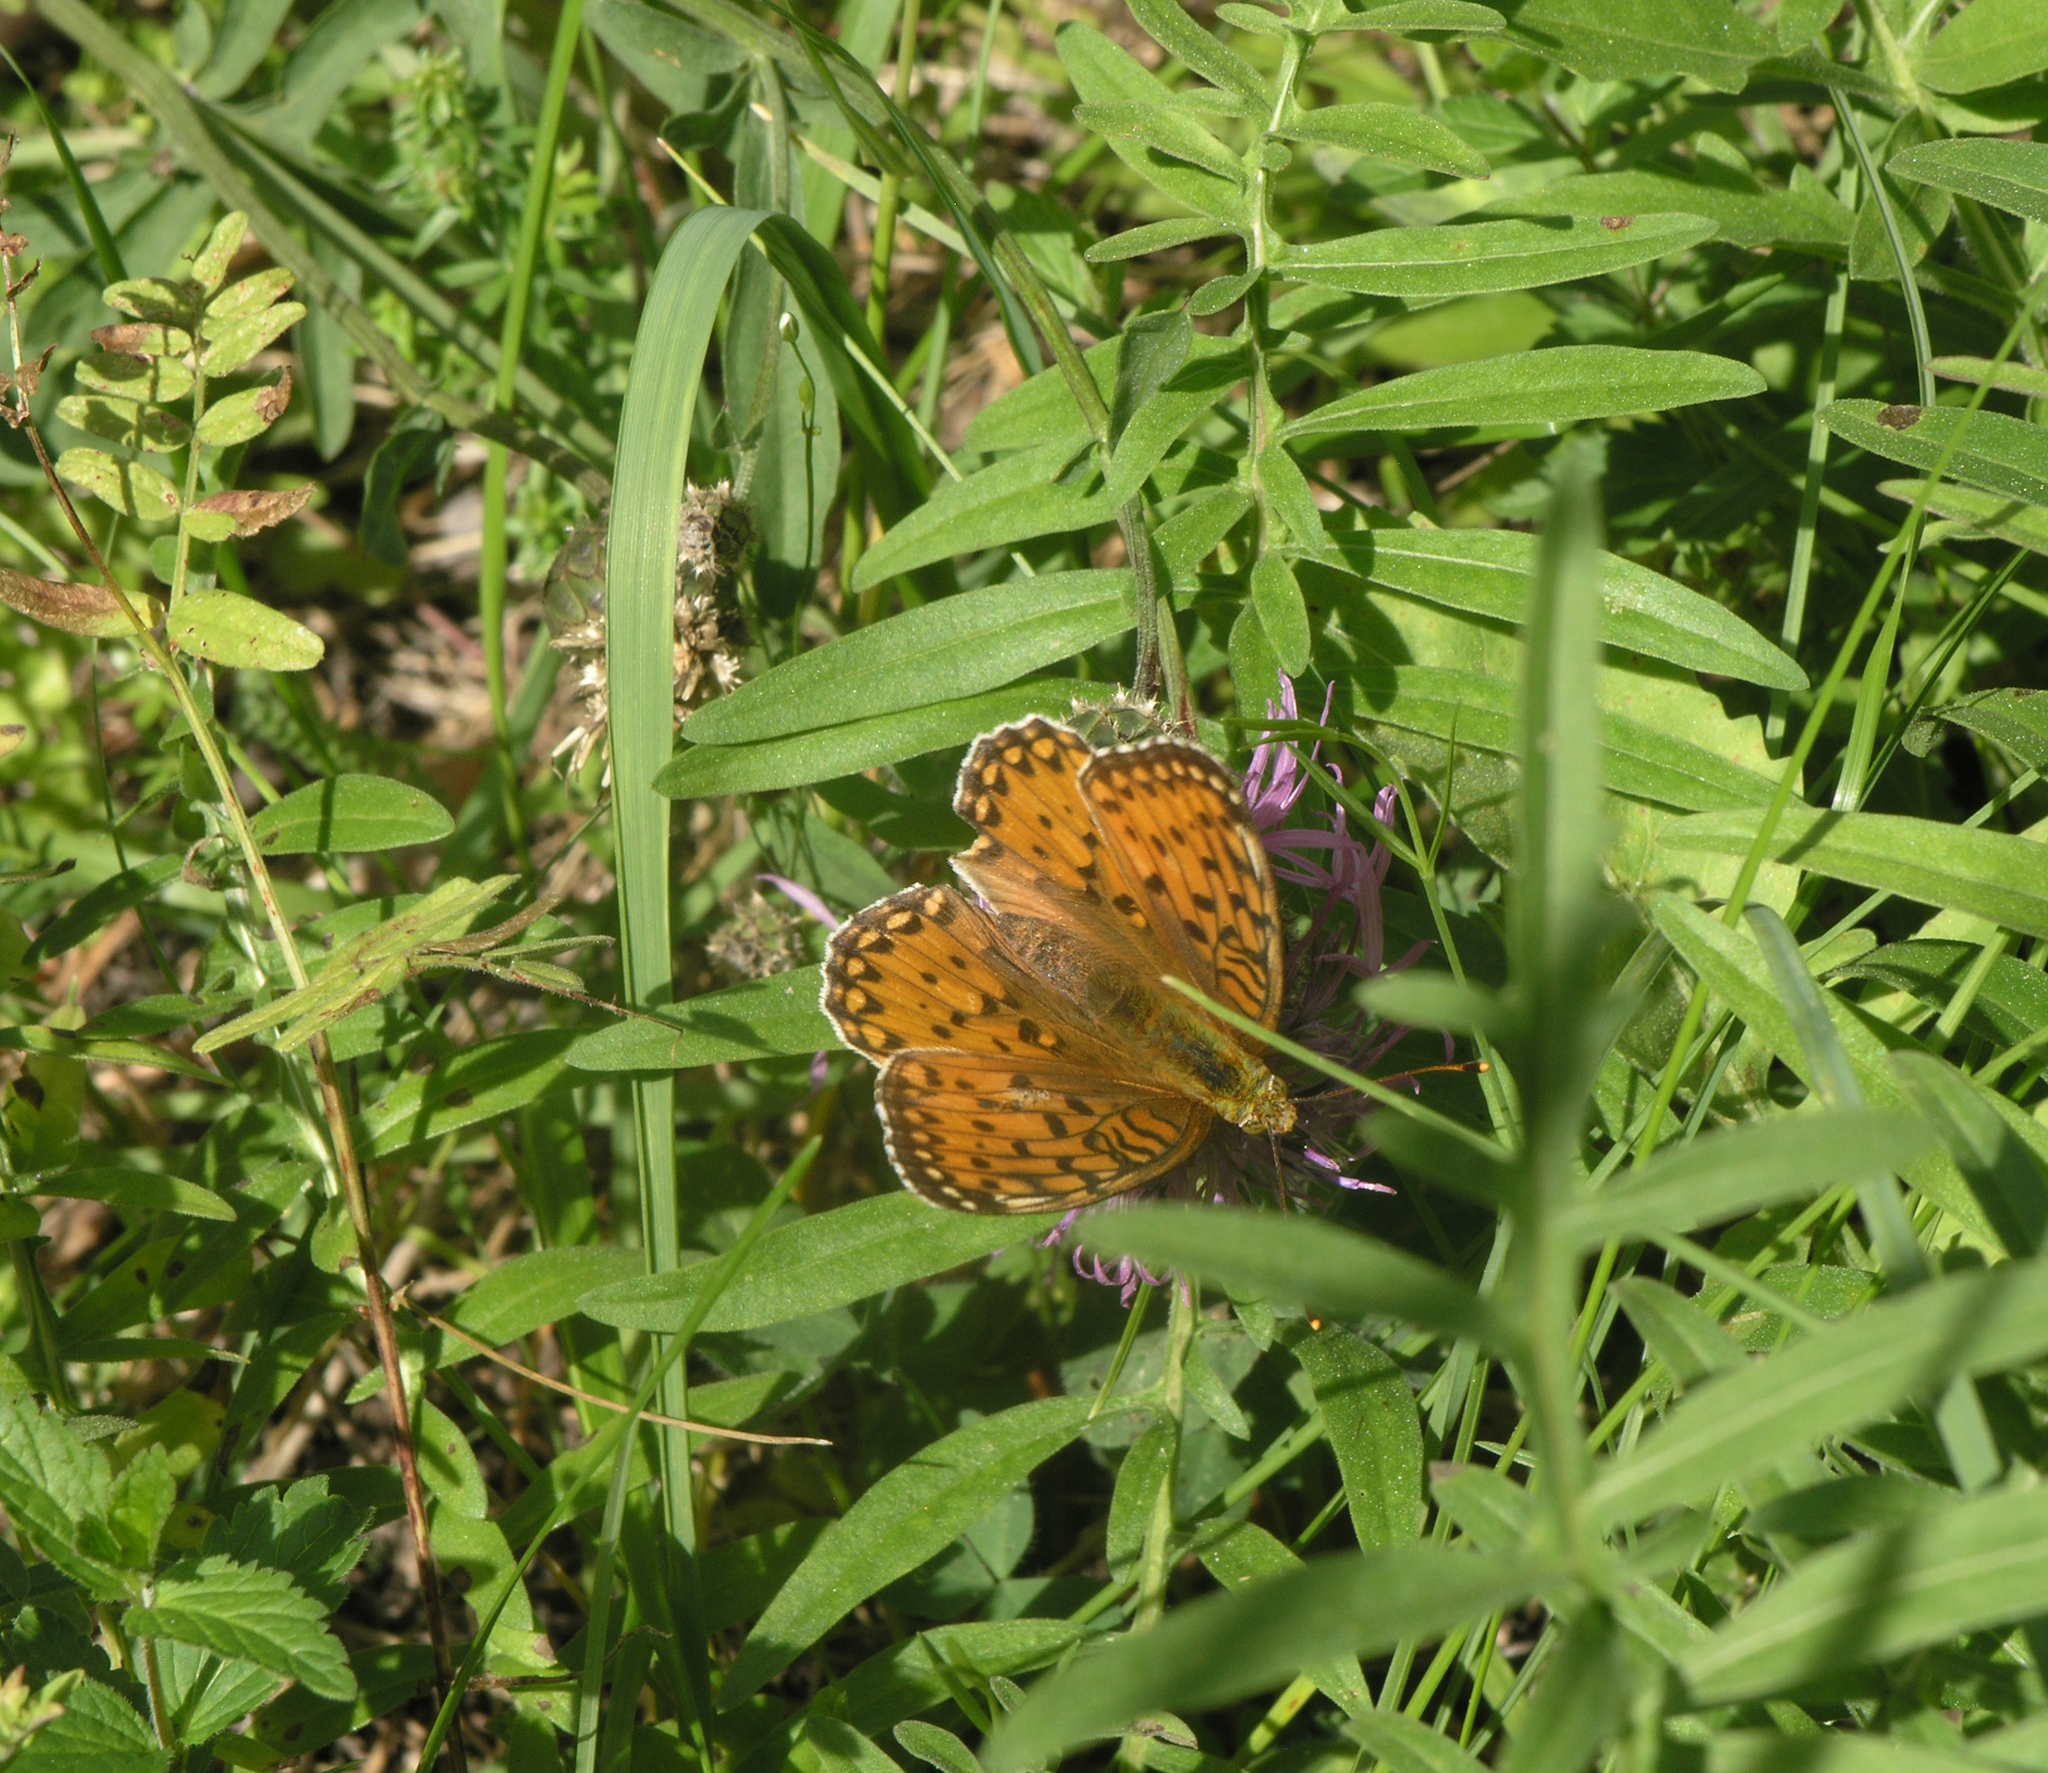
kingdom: Animalia
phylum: Arthropoda
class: Insecta
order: Lepidoptera
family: Nymphalidae
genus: Speyeria
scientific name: Speyeria aglaja
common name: Dark green fritillary
